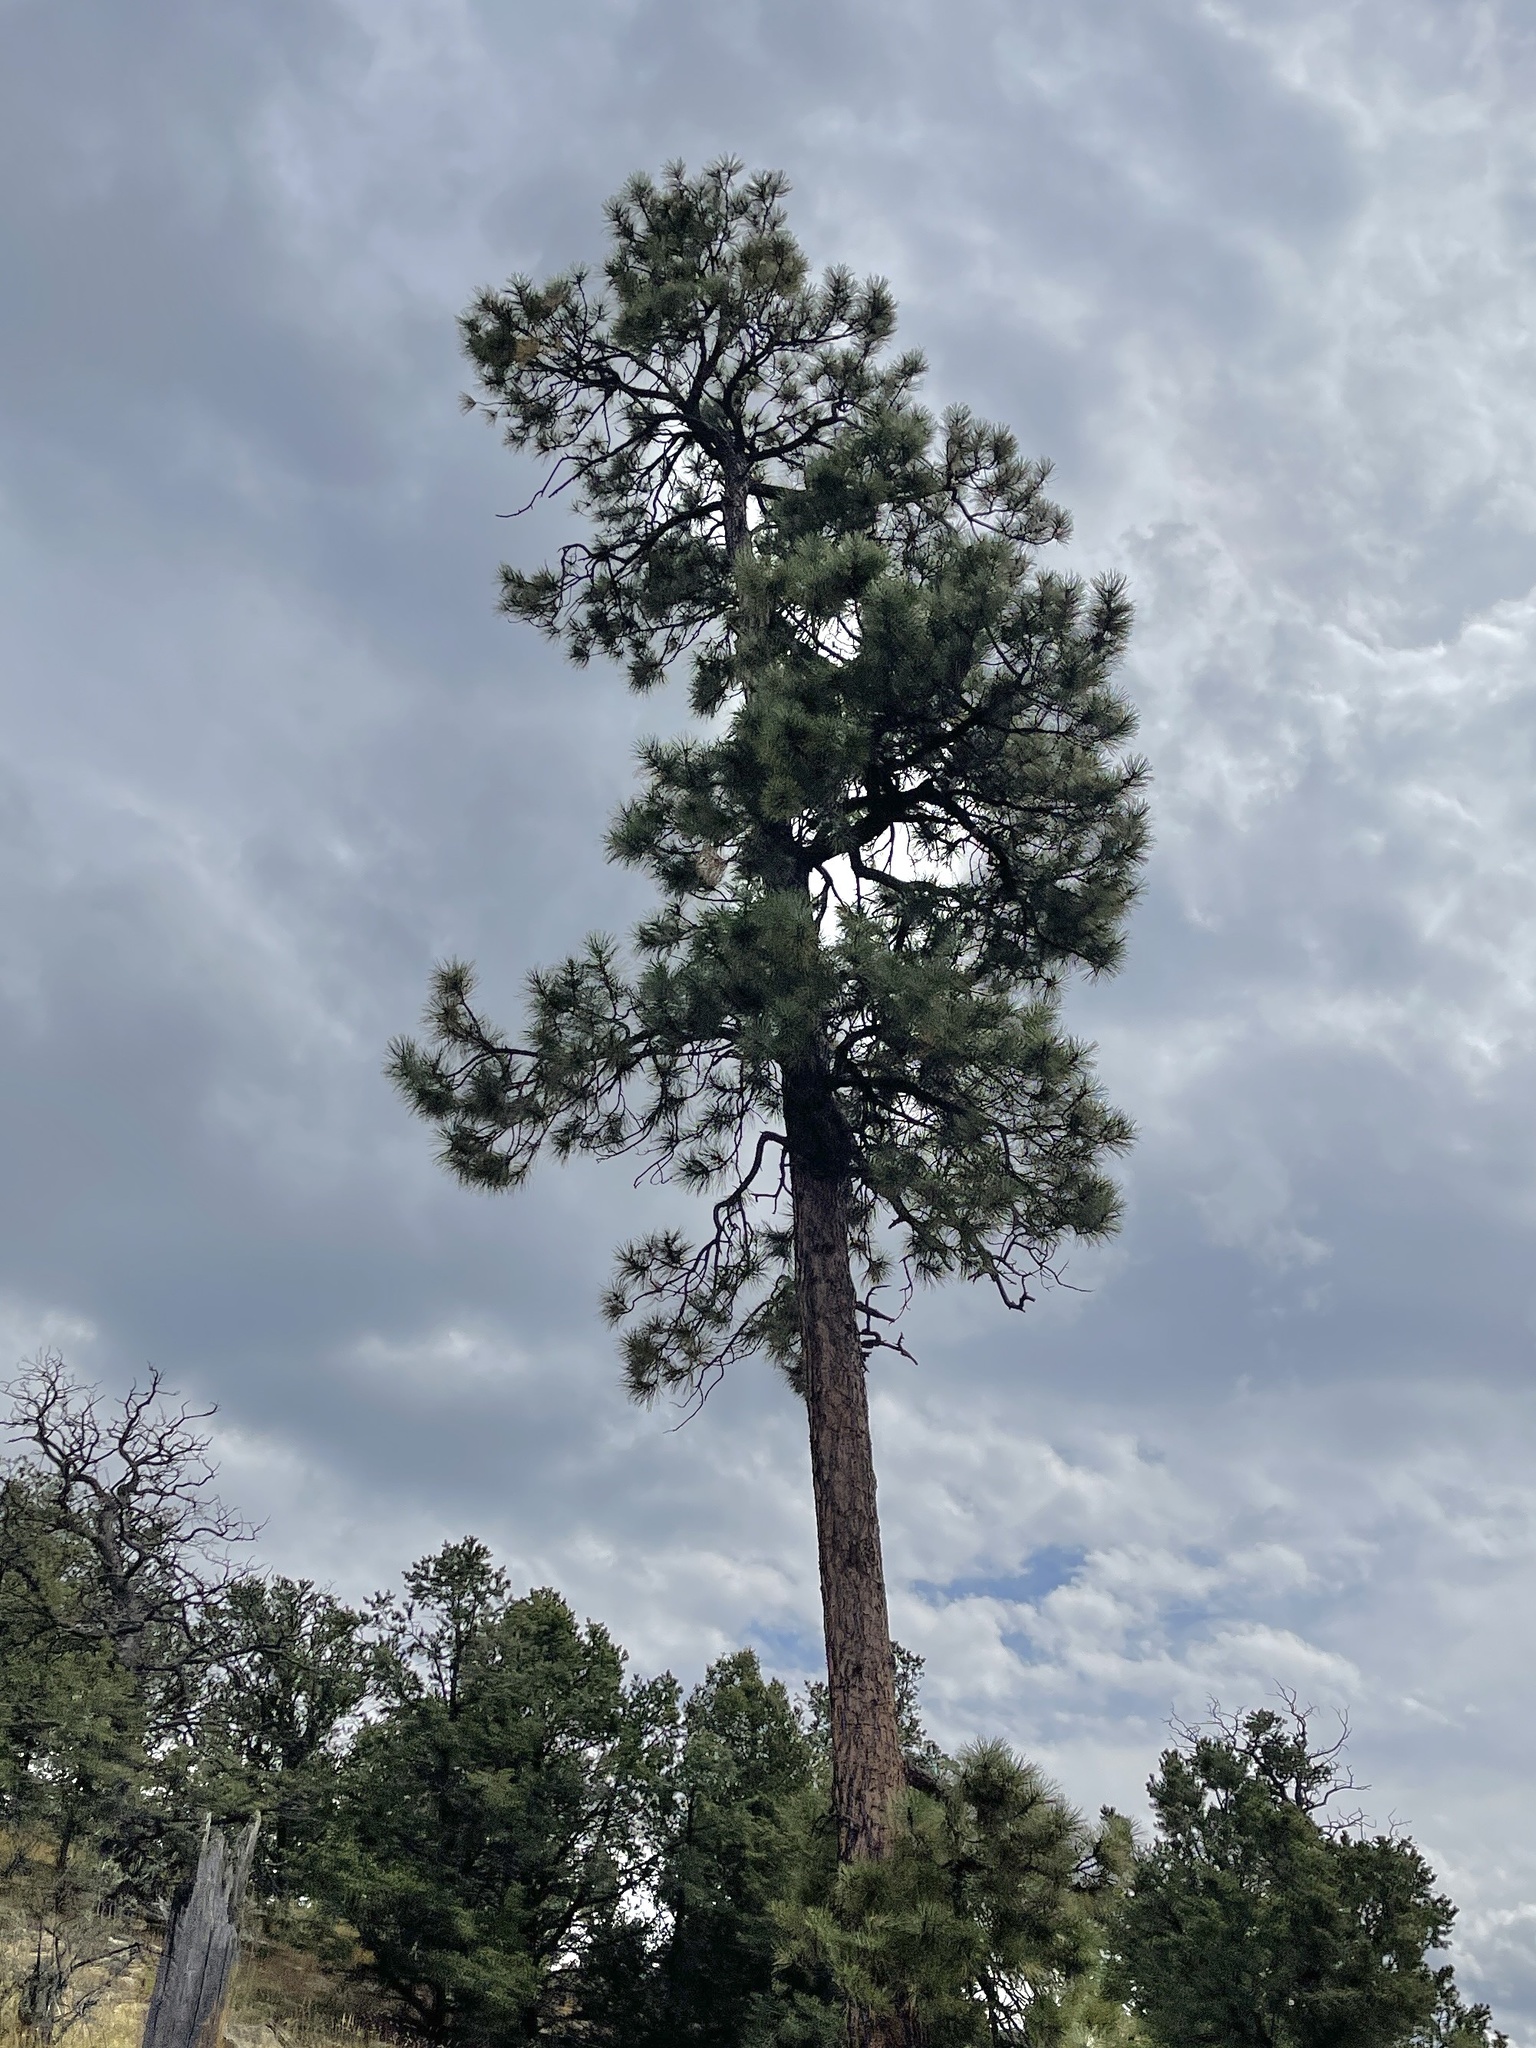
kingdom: Plantae
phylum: Tracheophyta
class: Pinopsida
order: Pinales
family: Pinaceae
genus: Pinus
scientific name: Pinus ponderosa
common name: Western yellow-pine
